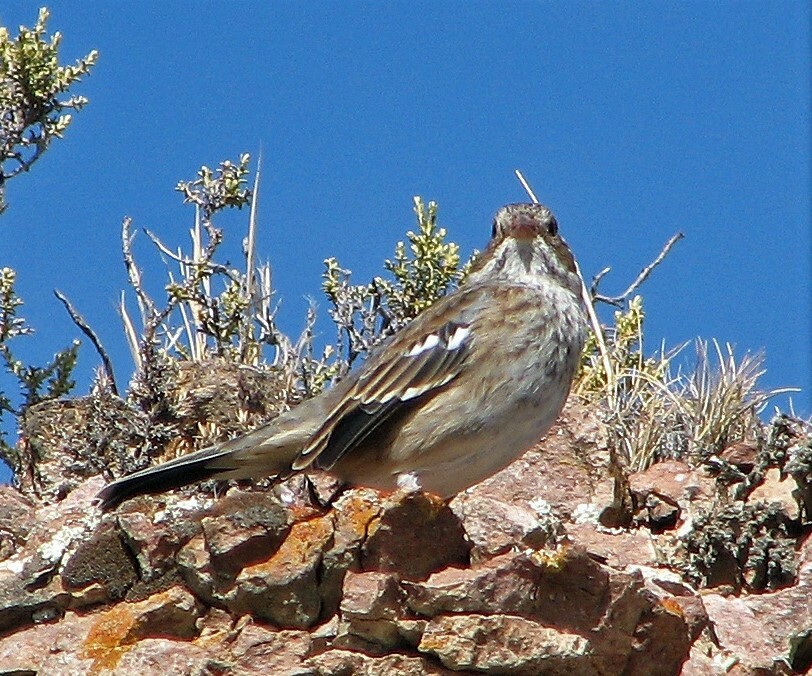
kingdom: Animalia
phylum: Chordata
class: Aves
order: Passeriformes
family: Thraupidae
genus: Rhopospina
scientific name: Rhopospina fruticeti
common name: Mourning sierra finch
